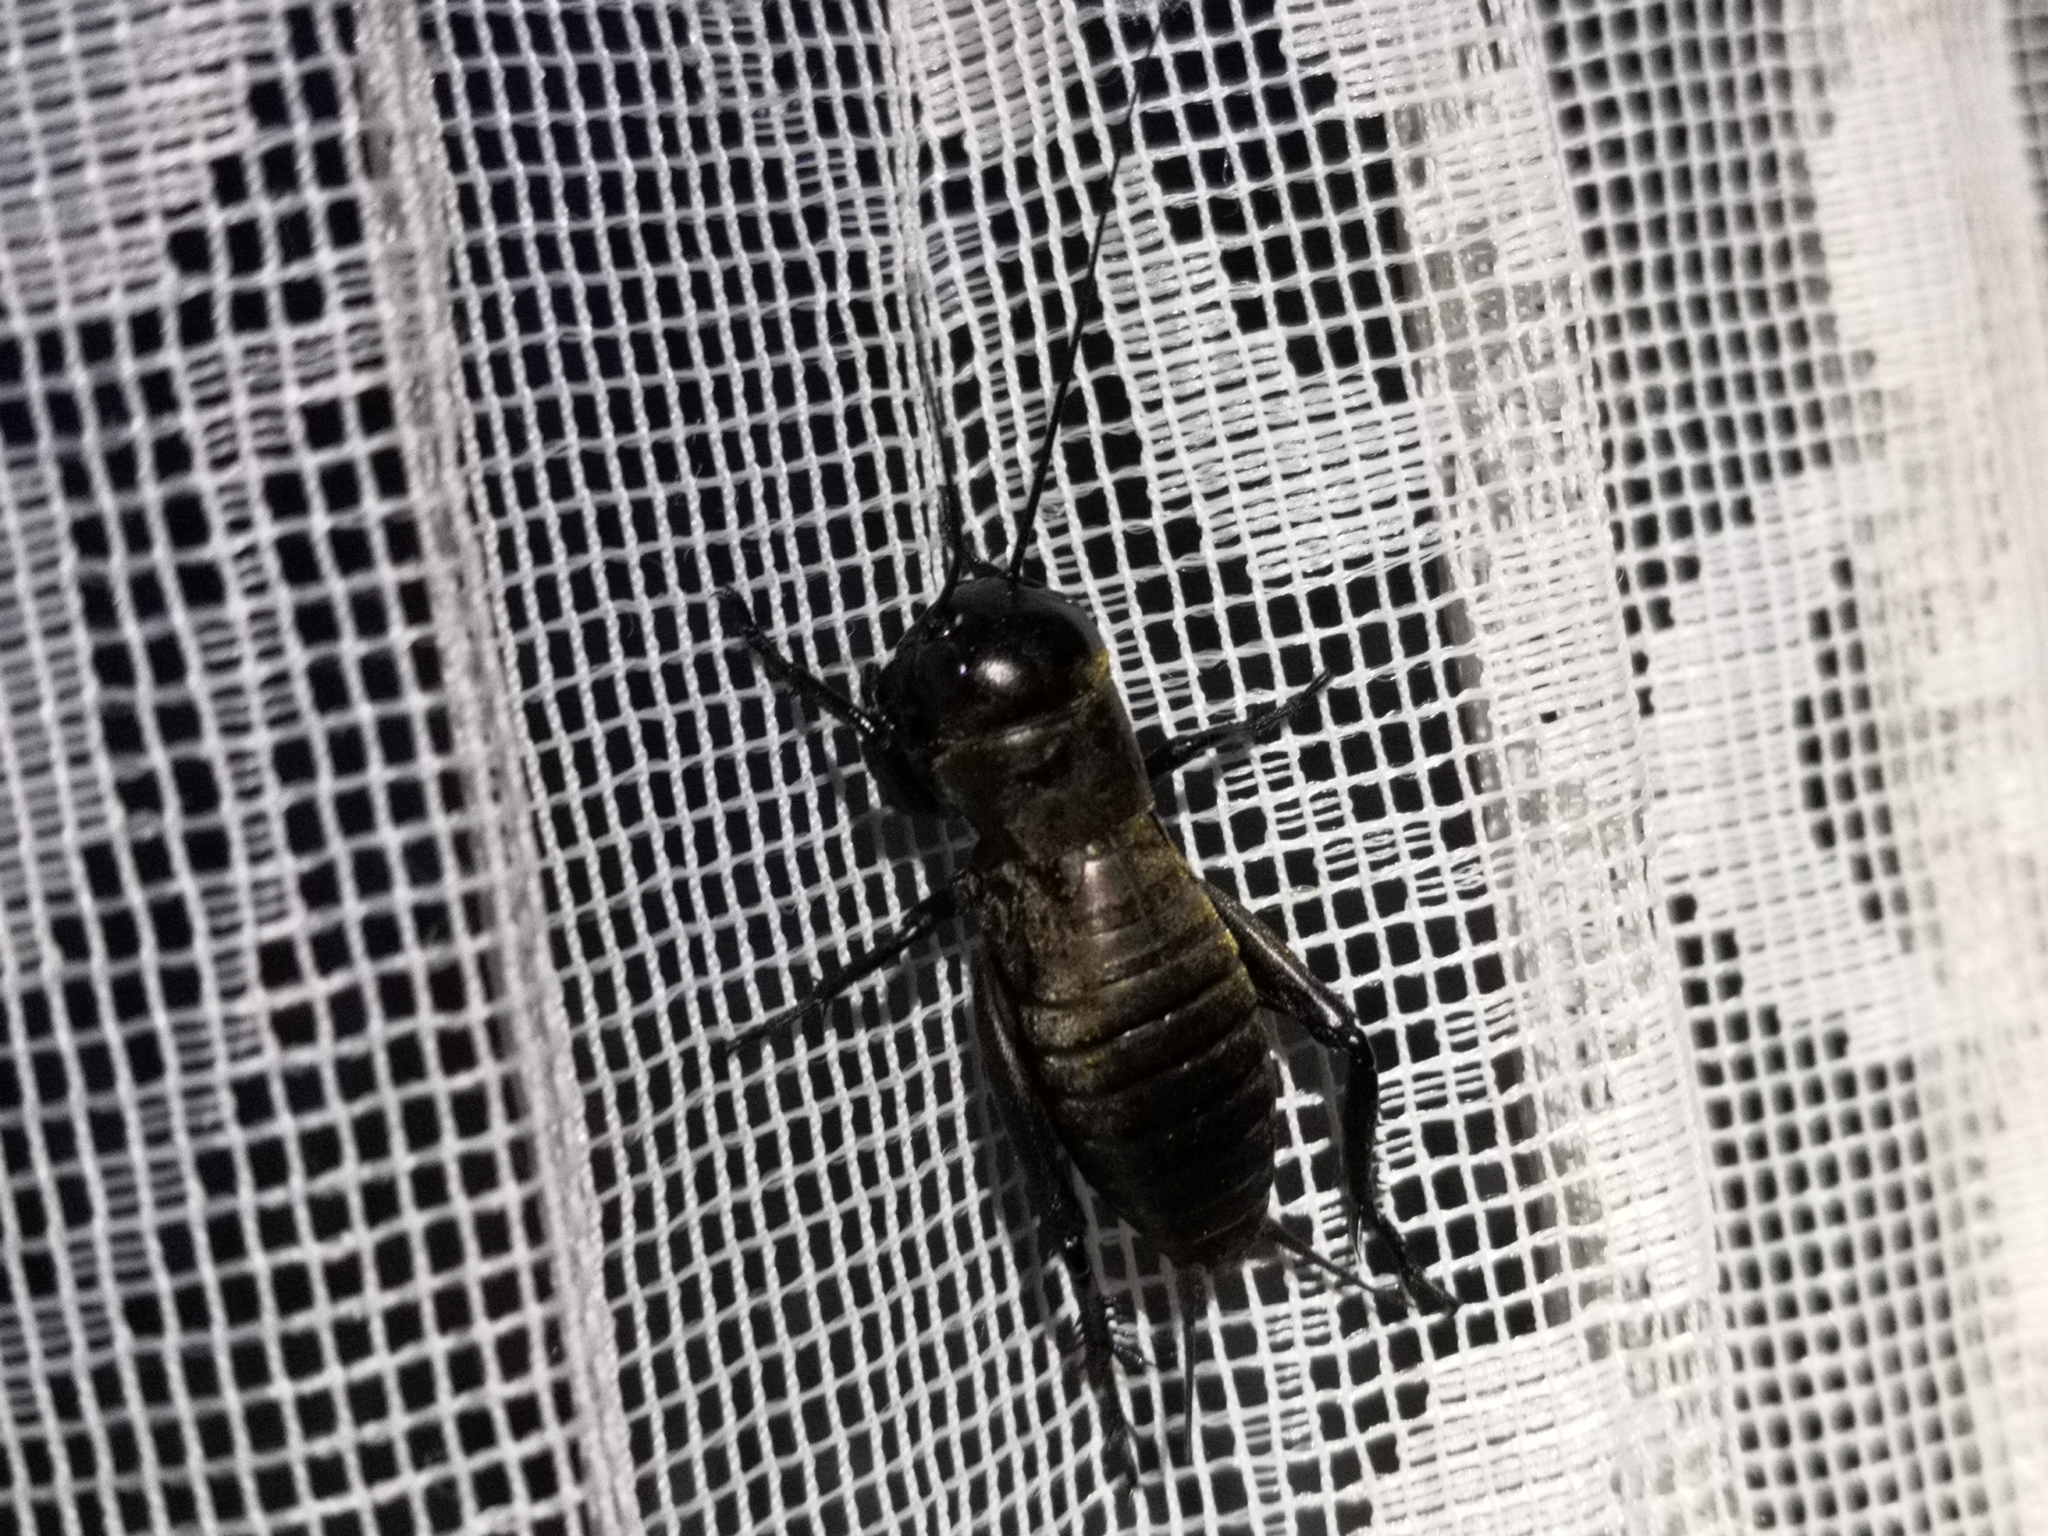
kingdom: Animalia
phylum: Arthropoda
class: Insecta
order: Orthoptera
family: Gryllidae
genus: Gryllus
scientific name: Gryllus campestris
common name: Field cricket
